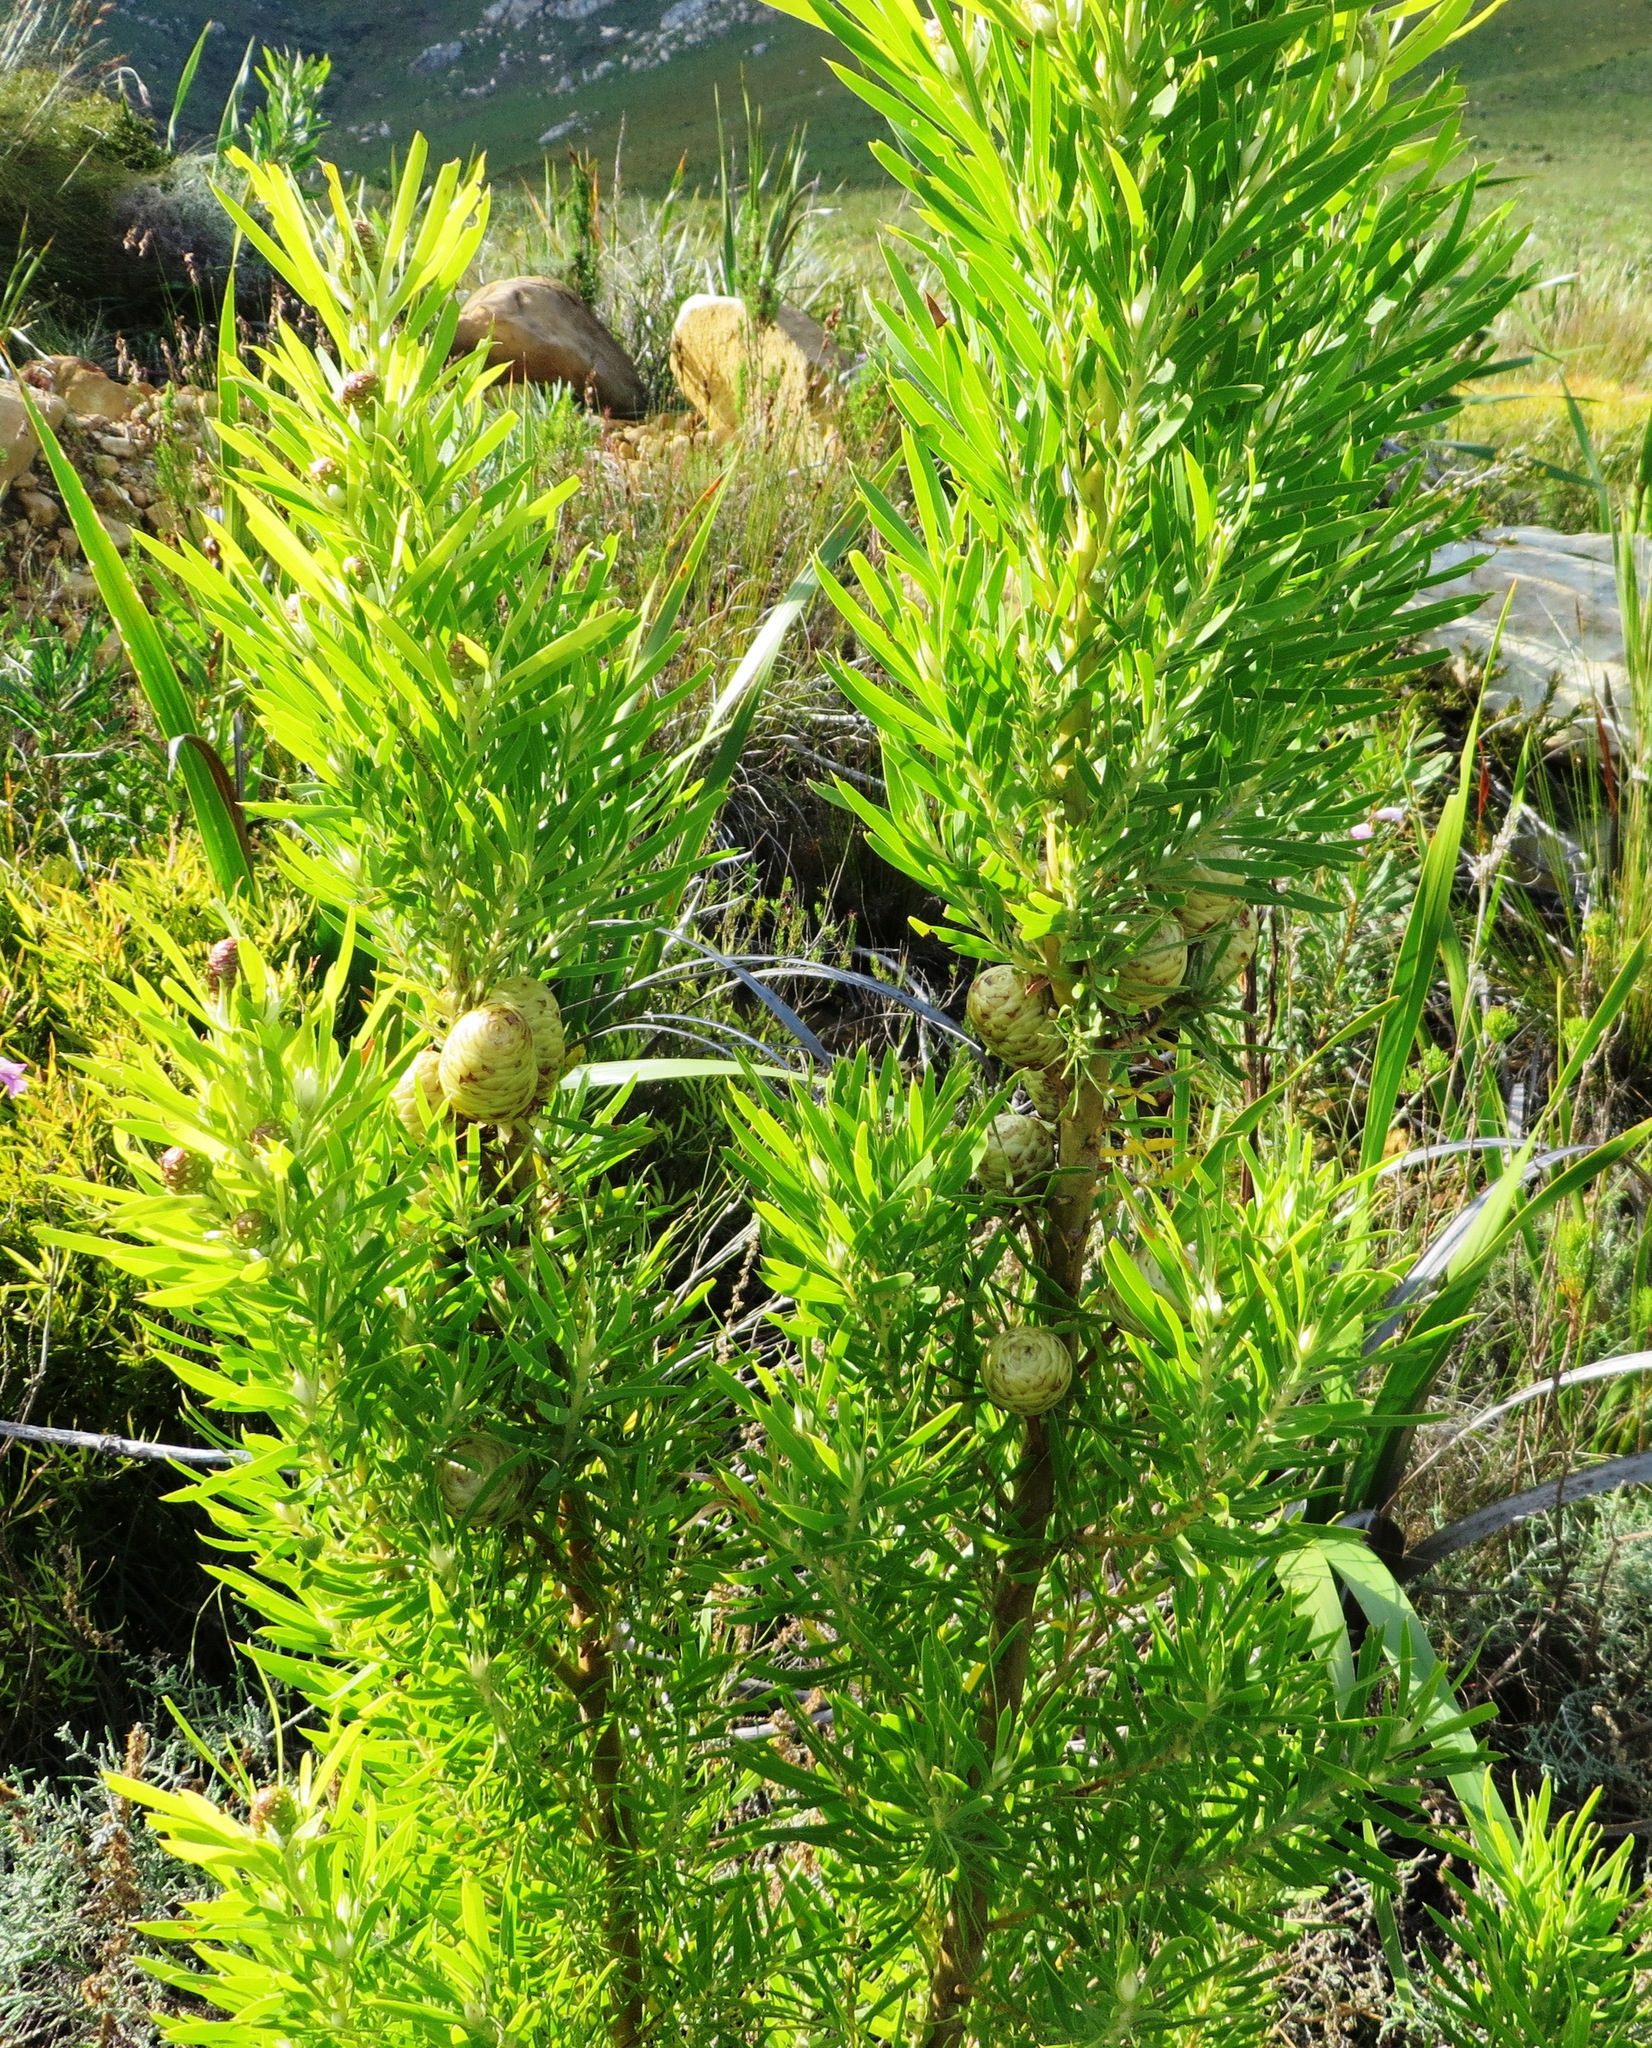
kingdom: Plantae
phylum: Tracheophyta
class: Magnoliopsida
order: Proteales
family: Proteaceae
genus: Leucadendron
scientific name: Leucadendron salicifolium
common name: Common stream conebush
